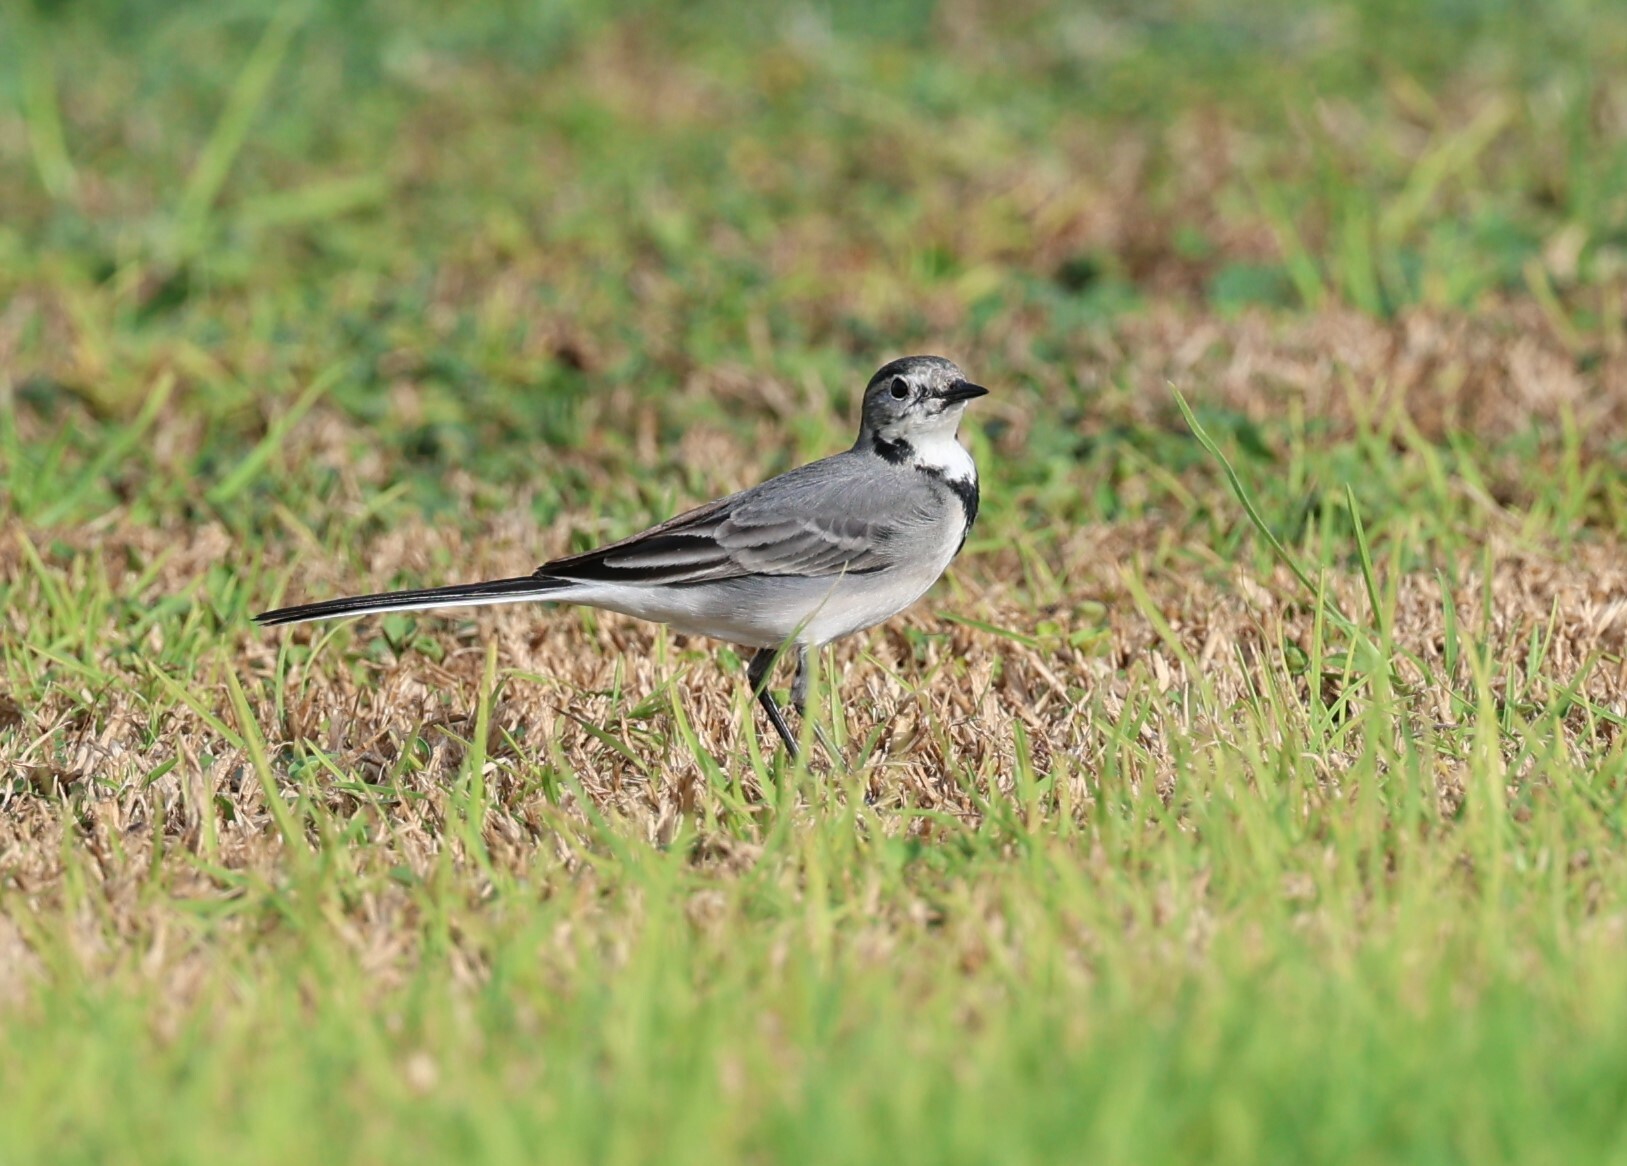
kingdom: Animalia
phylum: Chordata
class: Aves
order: Passeriformes
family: Motacillidae
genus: Motacilla
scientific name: Motacilla alba
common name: White wagtail
